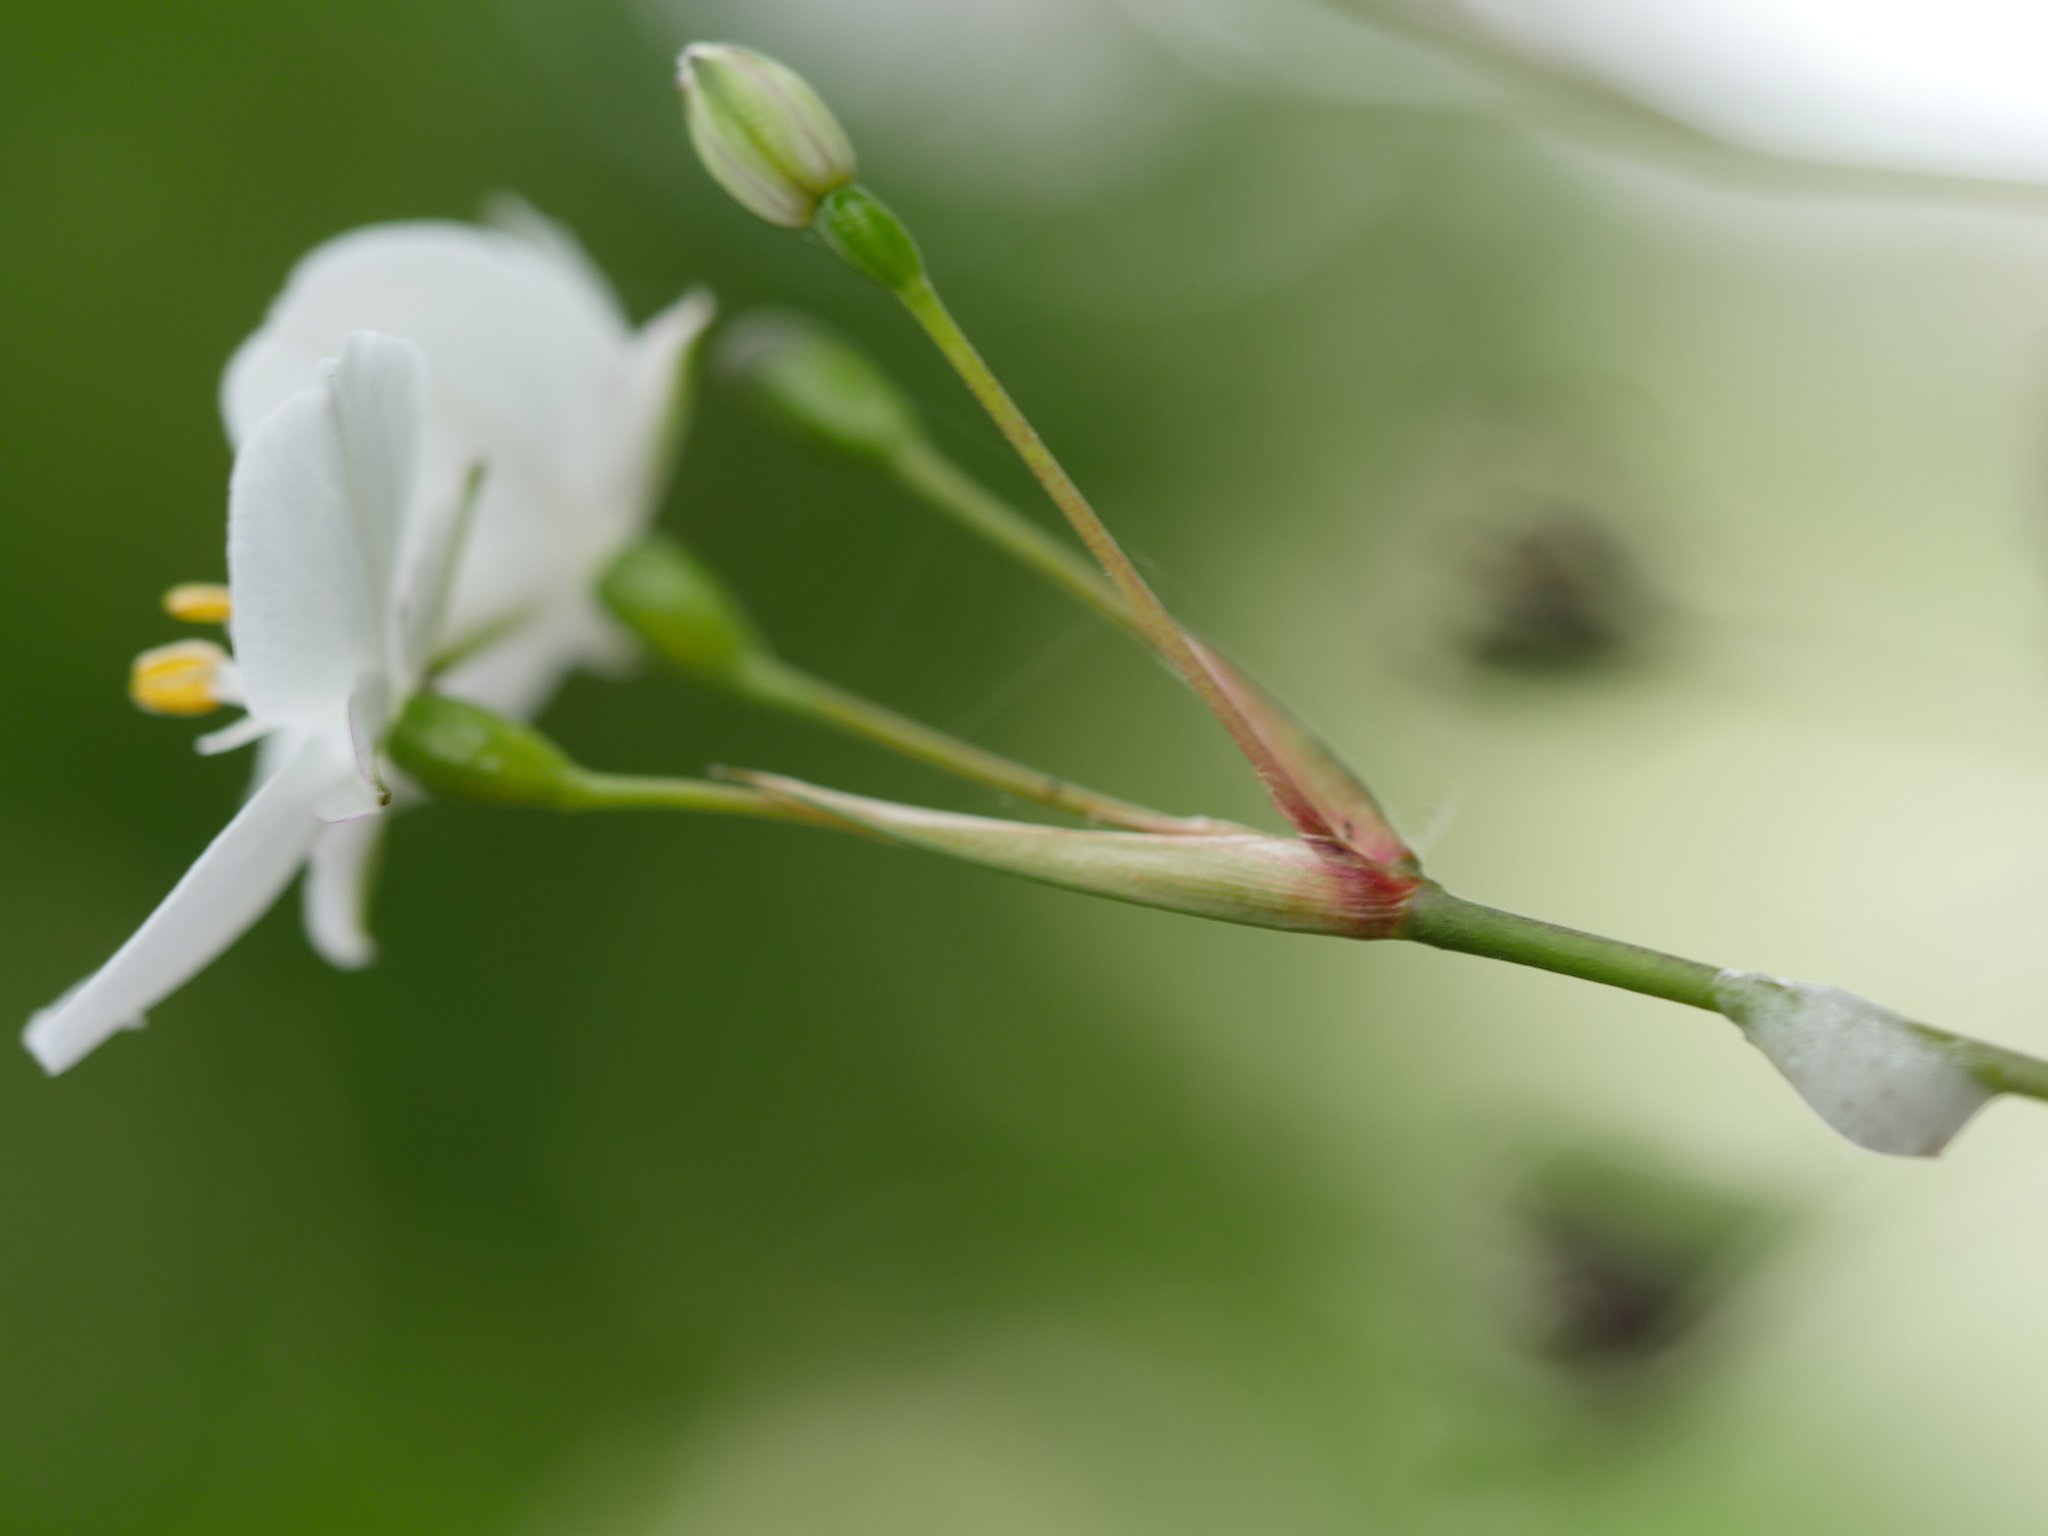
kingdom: Plantae
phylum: Tracheophyta
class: Liliopsida
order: Asparagales
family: Iridaceae
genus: Libertia
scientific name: Libertia grandiflora
